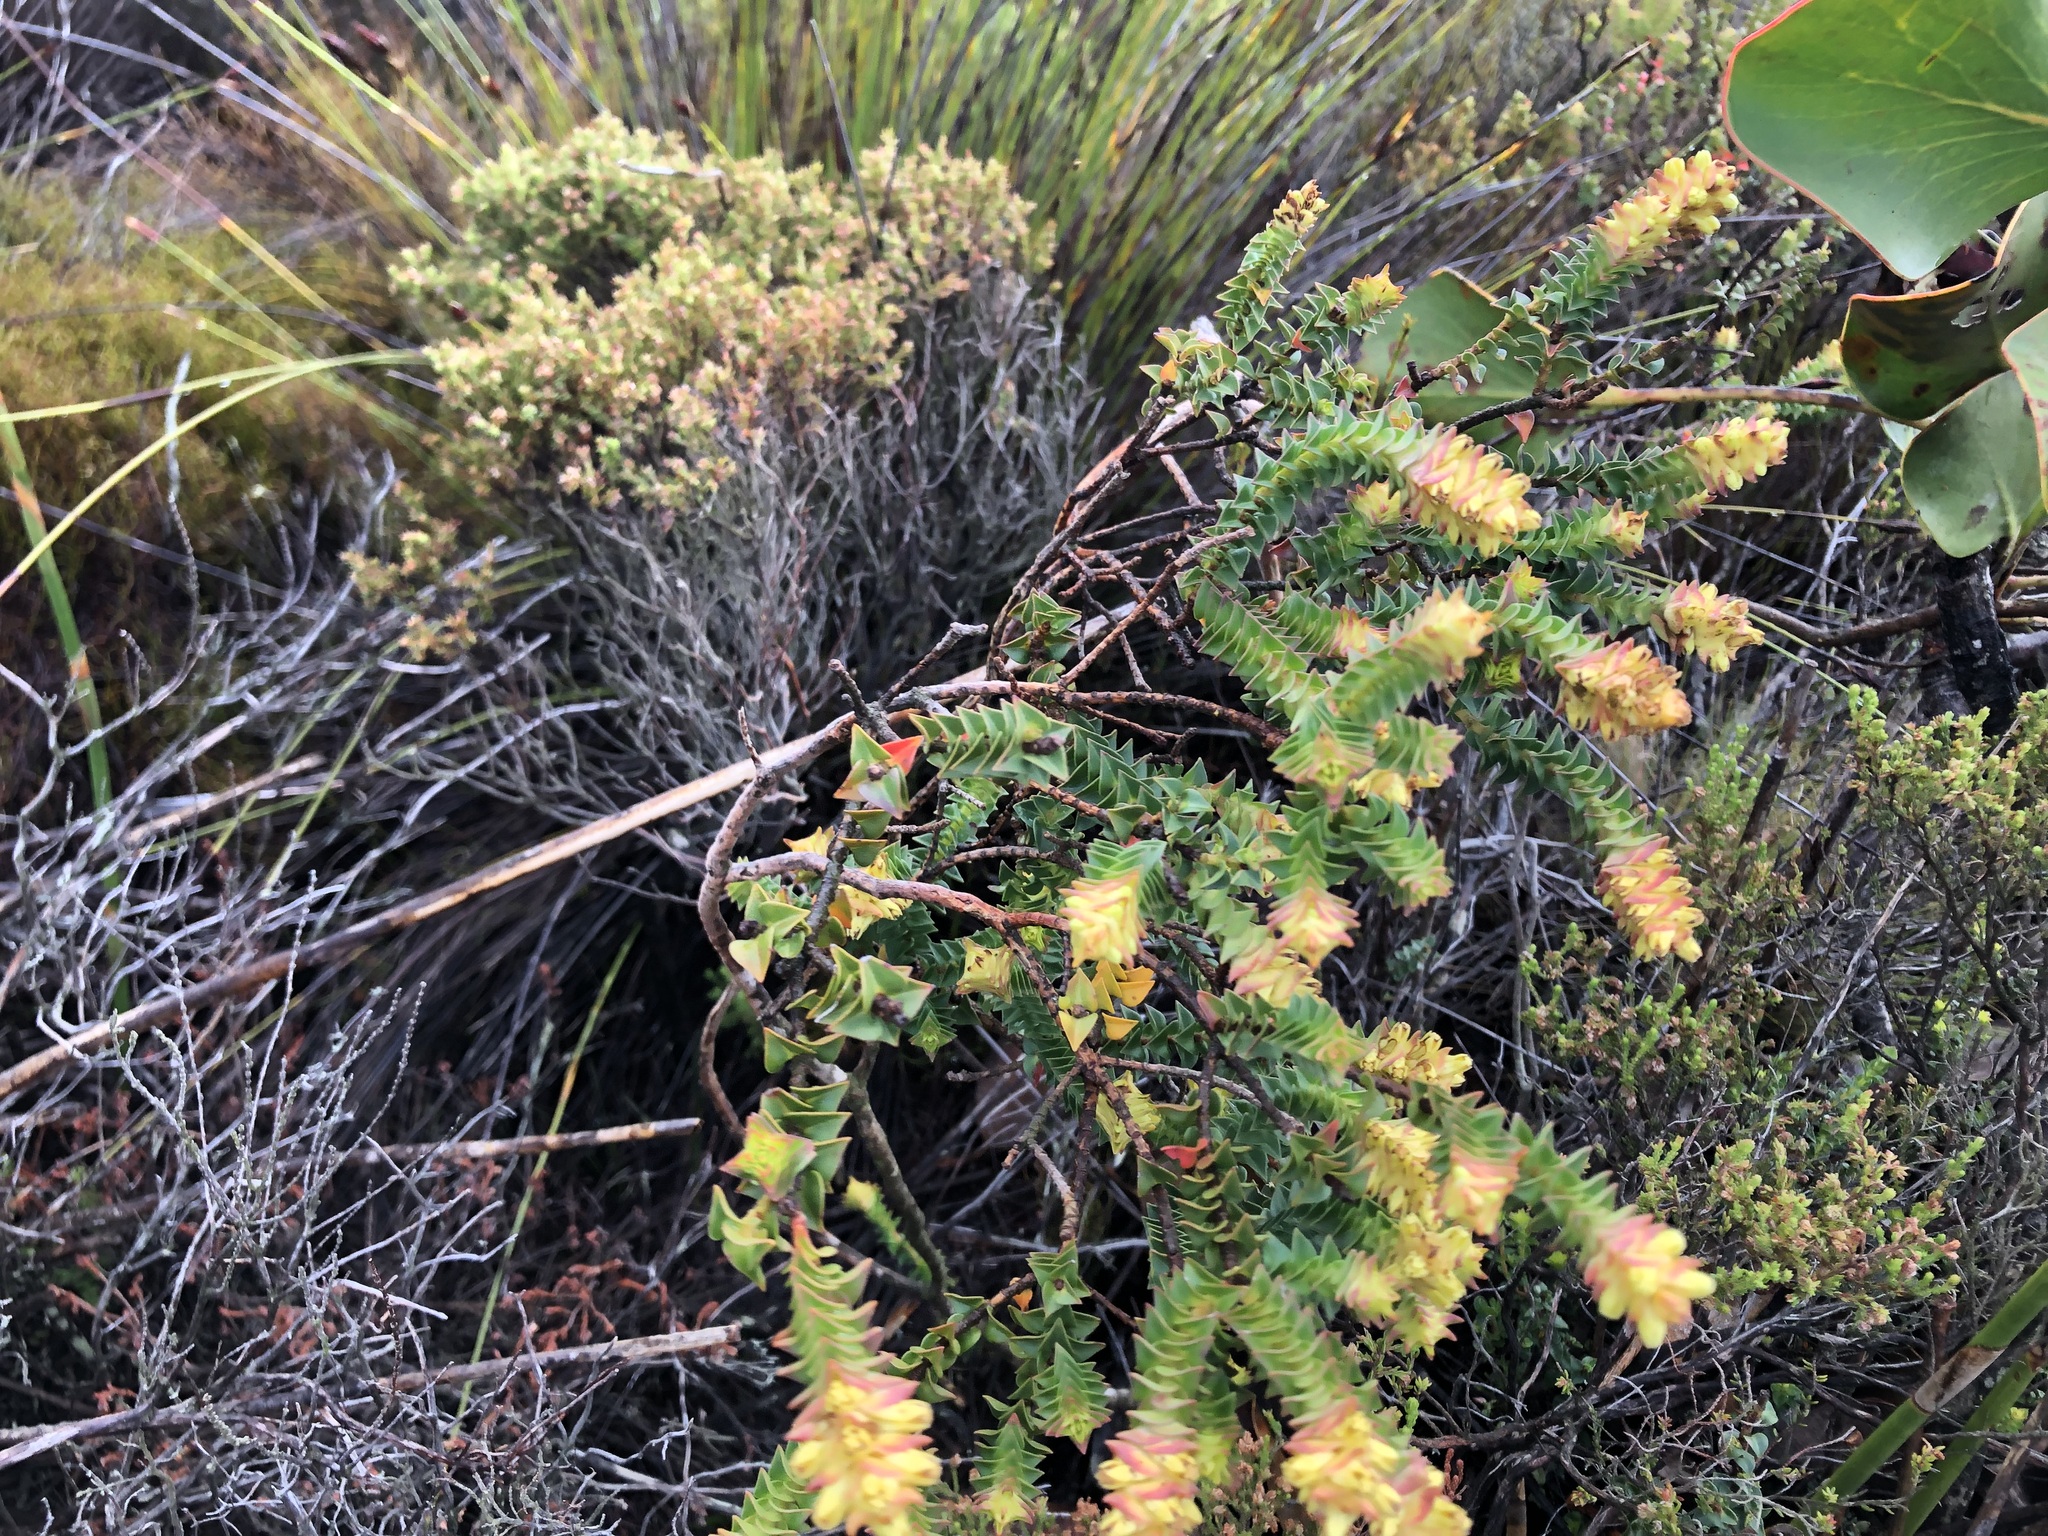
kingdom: Plantae
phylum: Tracheophyta
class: Magnoliopsida
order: Myrtales
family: Penaeaceae
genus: Penaea
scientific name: Penaea mucronata
